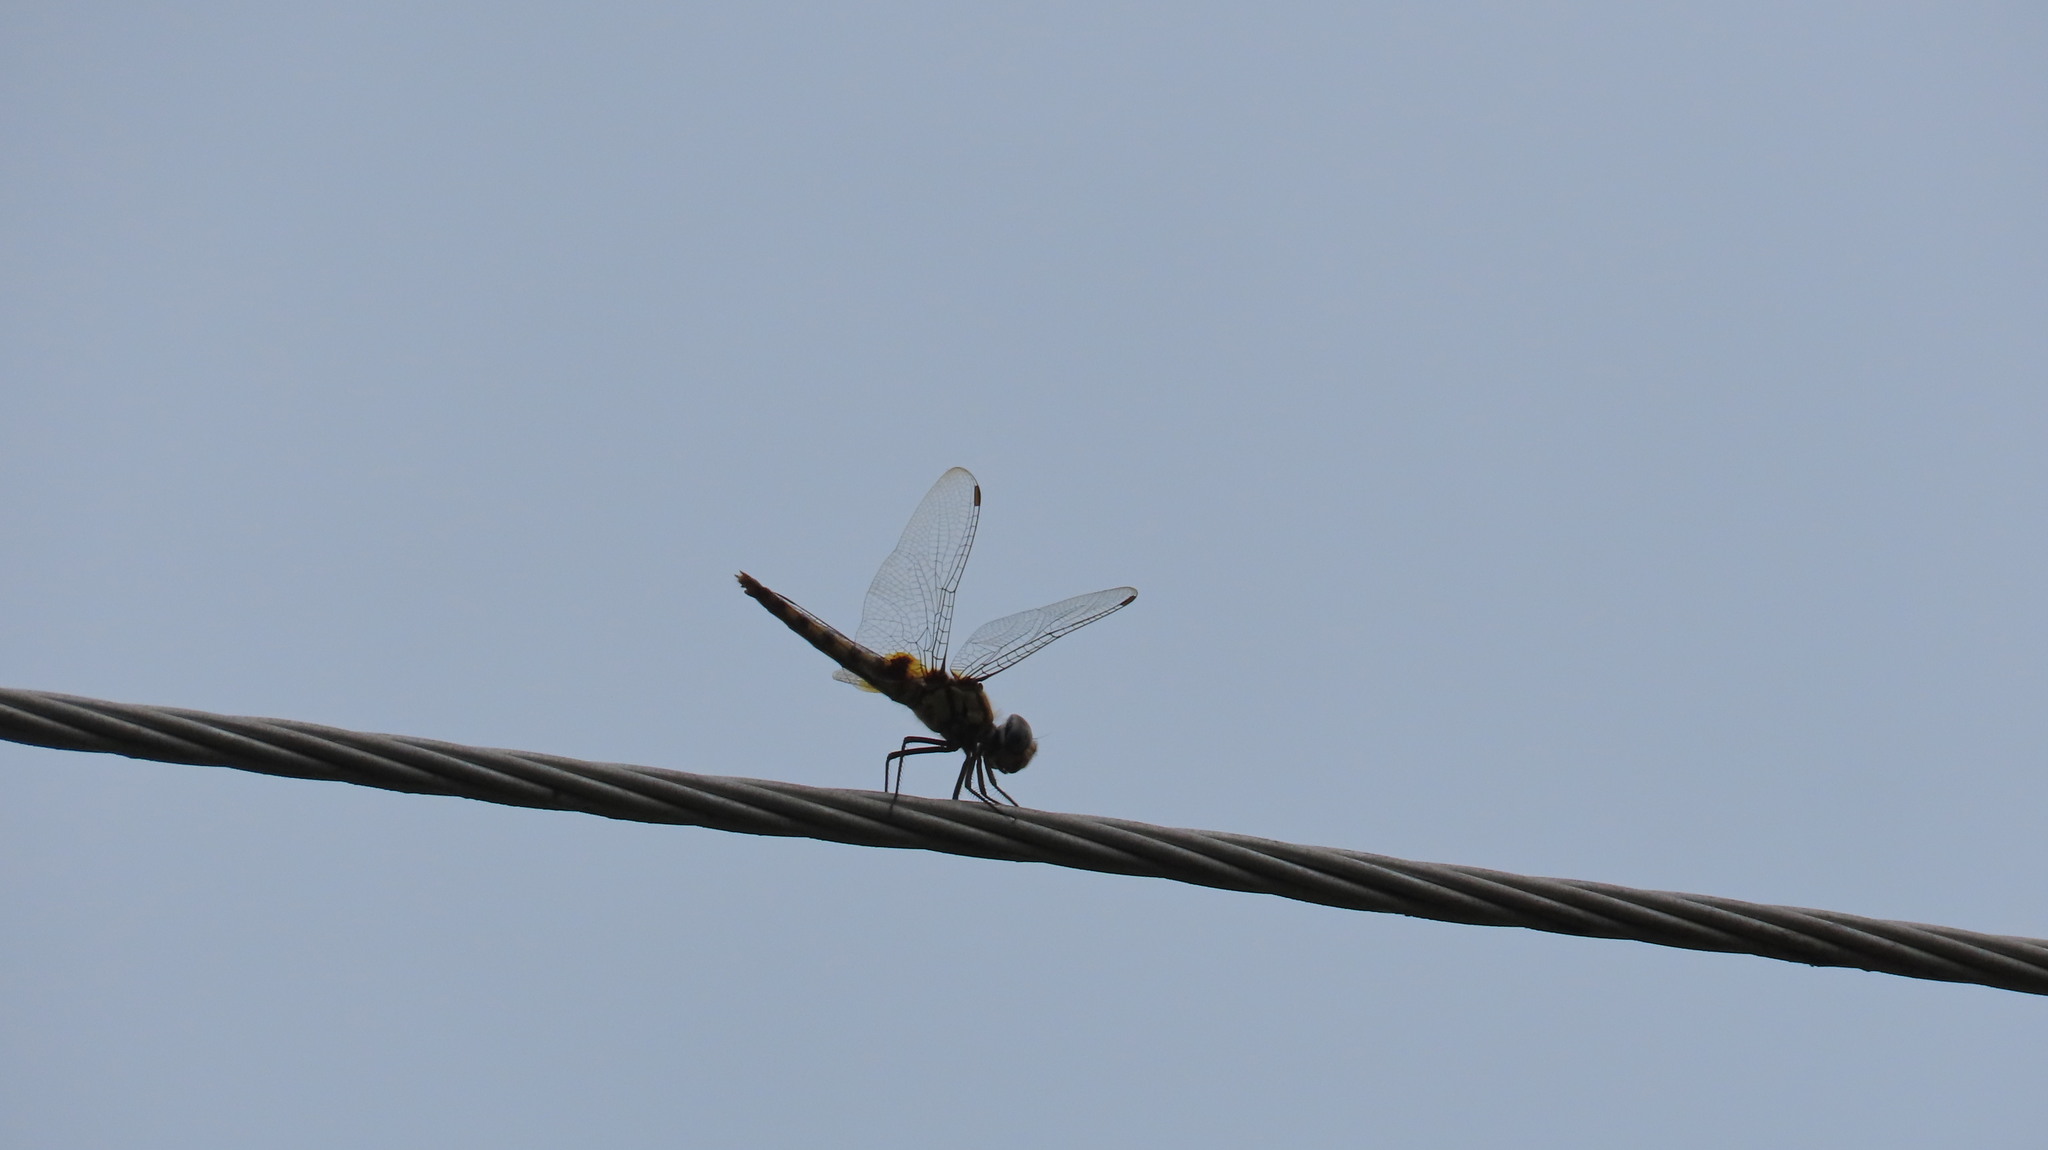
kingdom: Animalia
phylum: Arthropoda
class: Insecta
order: Odonata
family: Libellulidae
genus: Urothemis
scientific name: Urothemis signata
